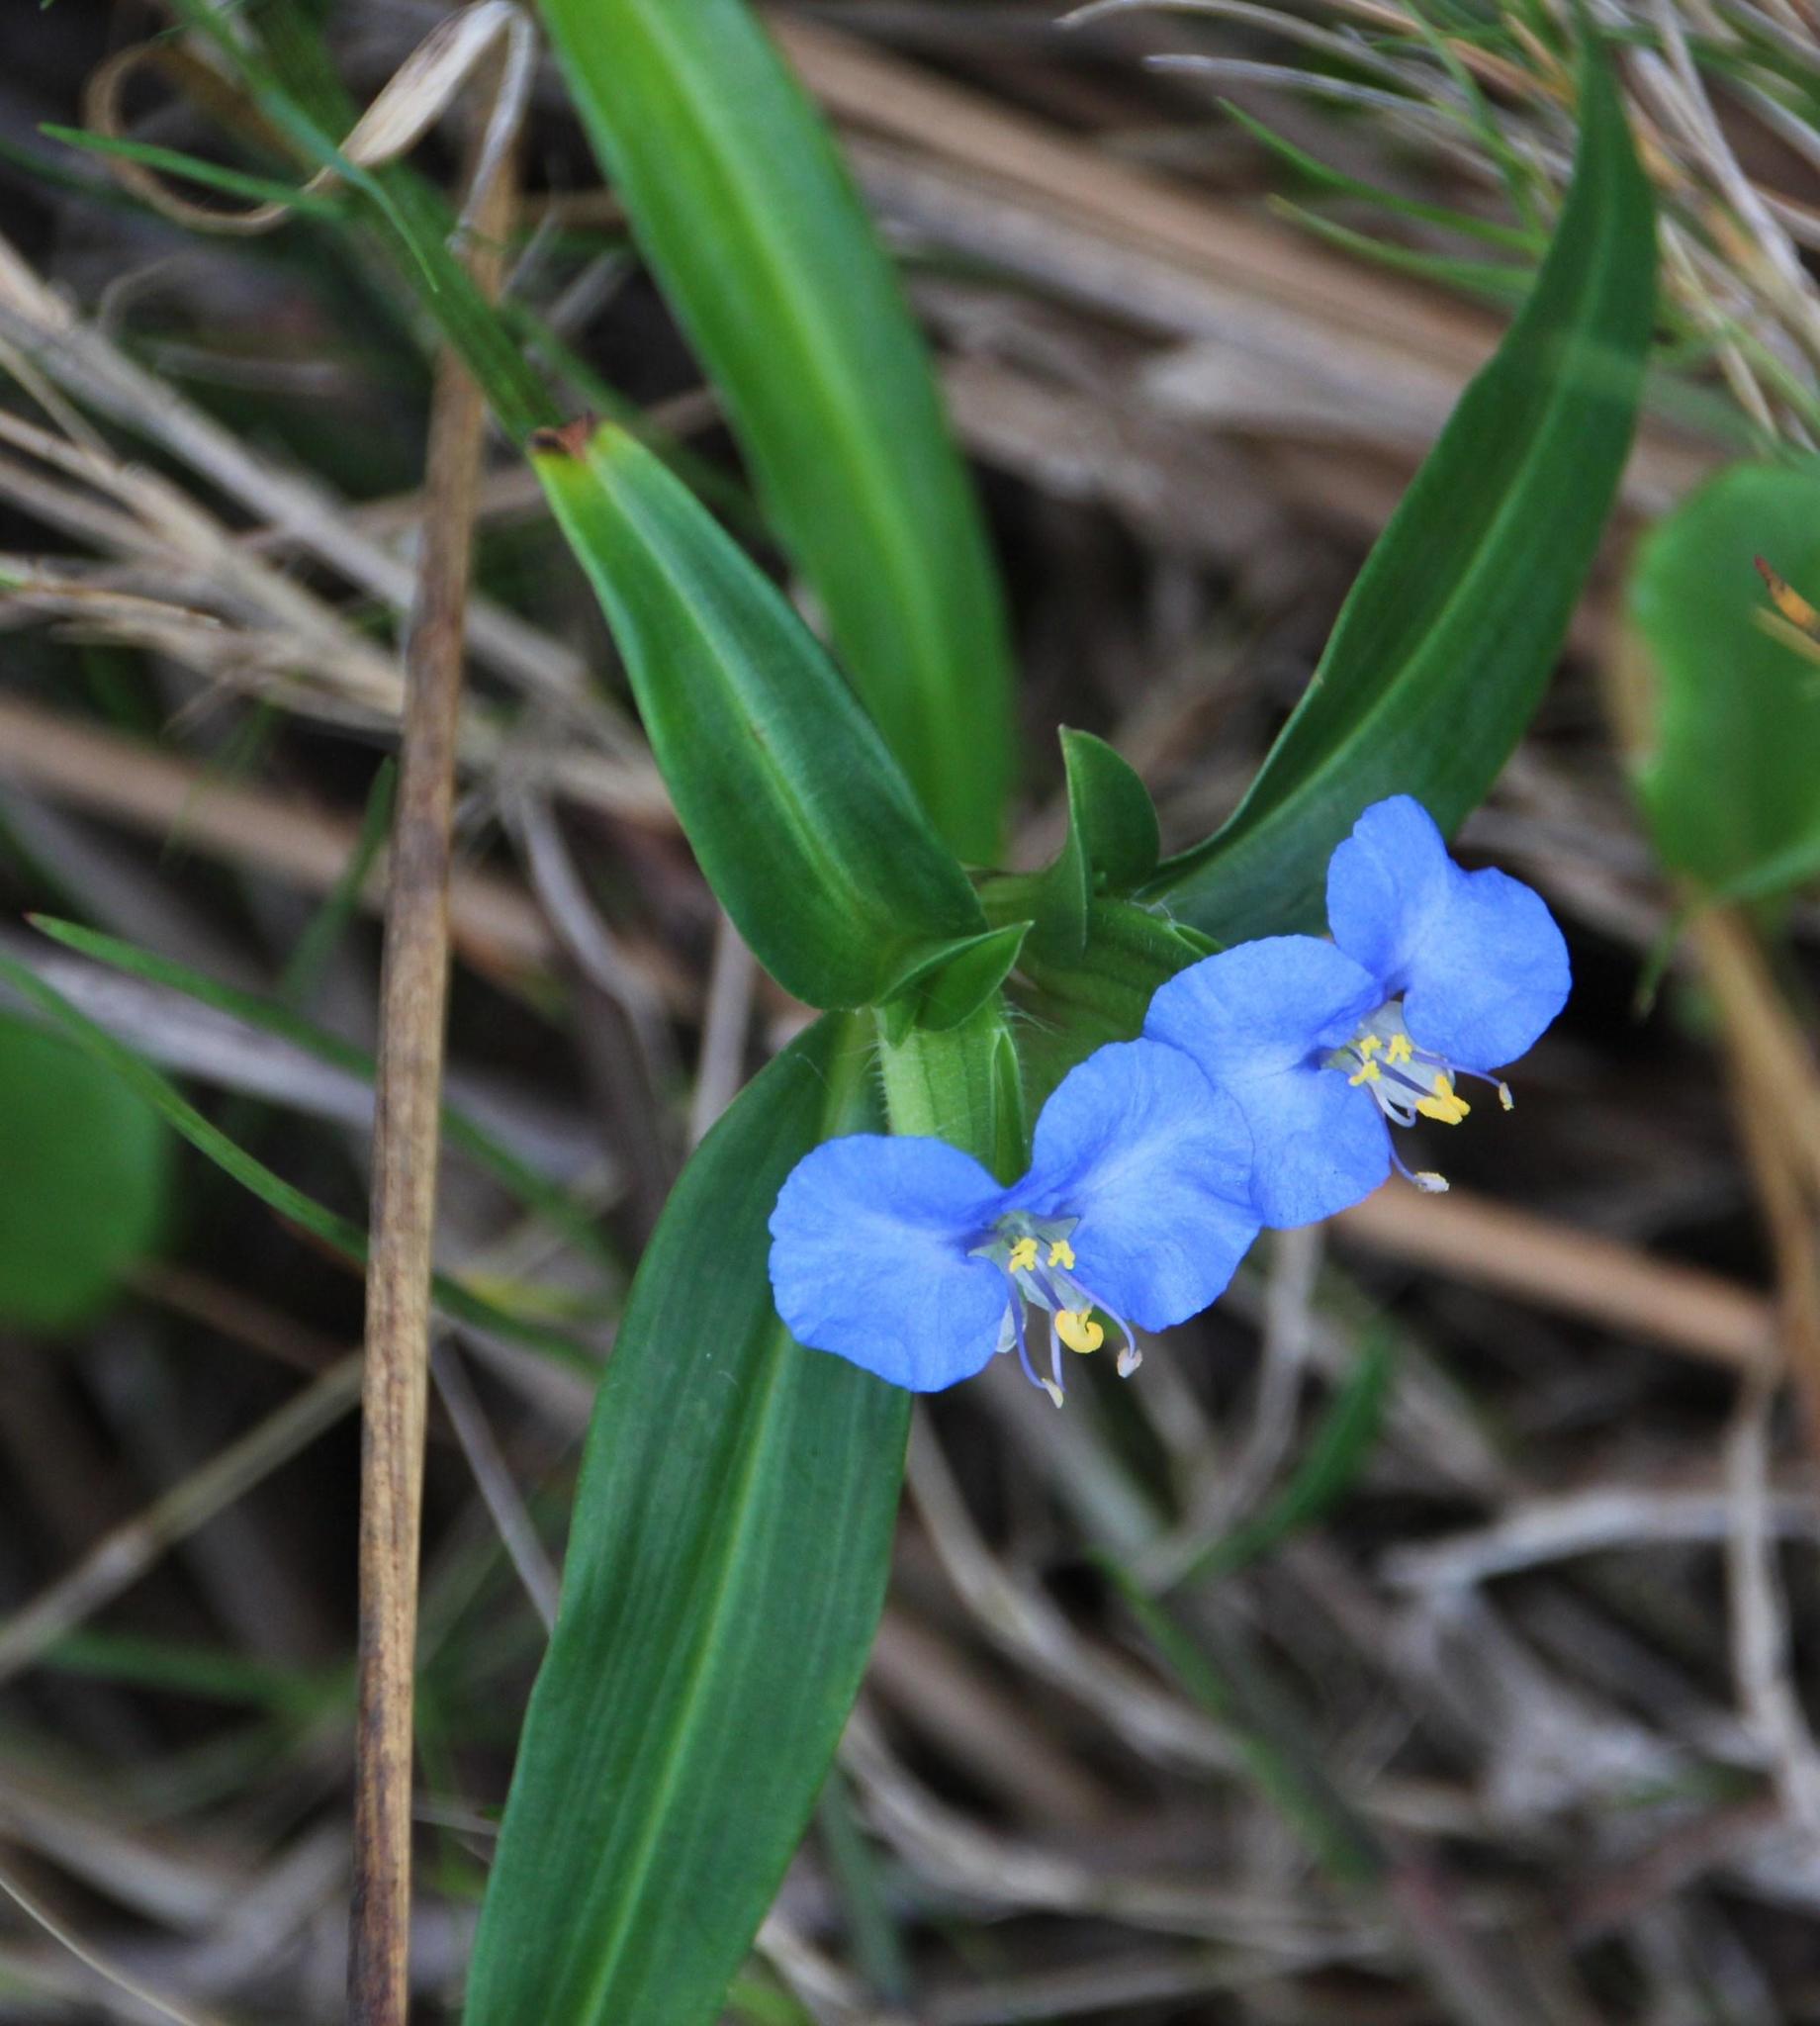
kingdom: Plantae
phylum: Tracheophyta
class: Liliopsida
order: Commelinales
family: Commelinaceae
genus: Commelina
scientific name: Commelina benghalensis
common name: Jio
